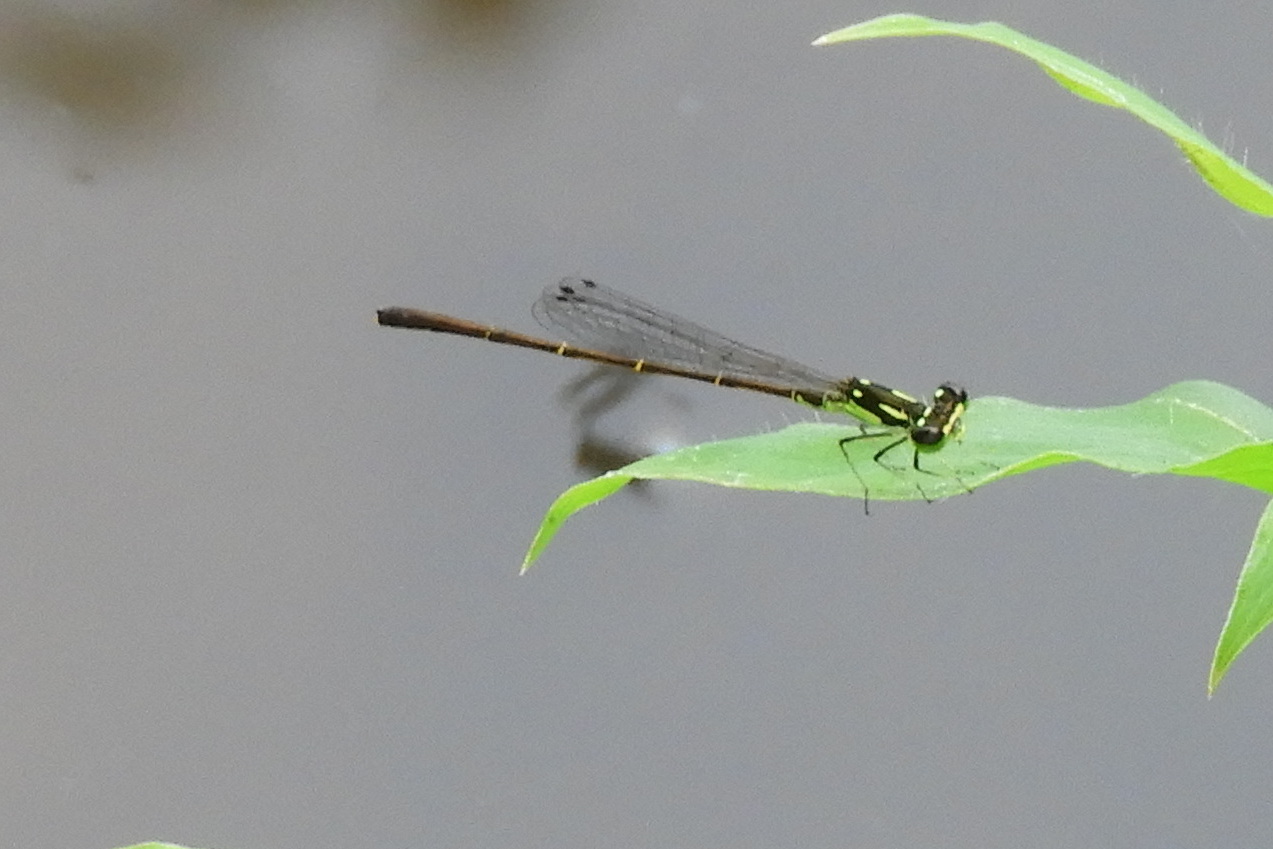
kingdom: Animalia
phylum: Arthropoda
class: Insecta
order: Odonata
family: Coenagrionidae
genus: Ischnura
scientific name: Ischnura posita
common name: Fragile forktail
